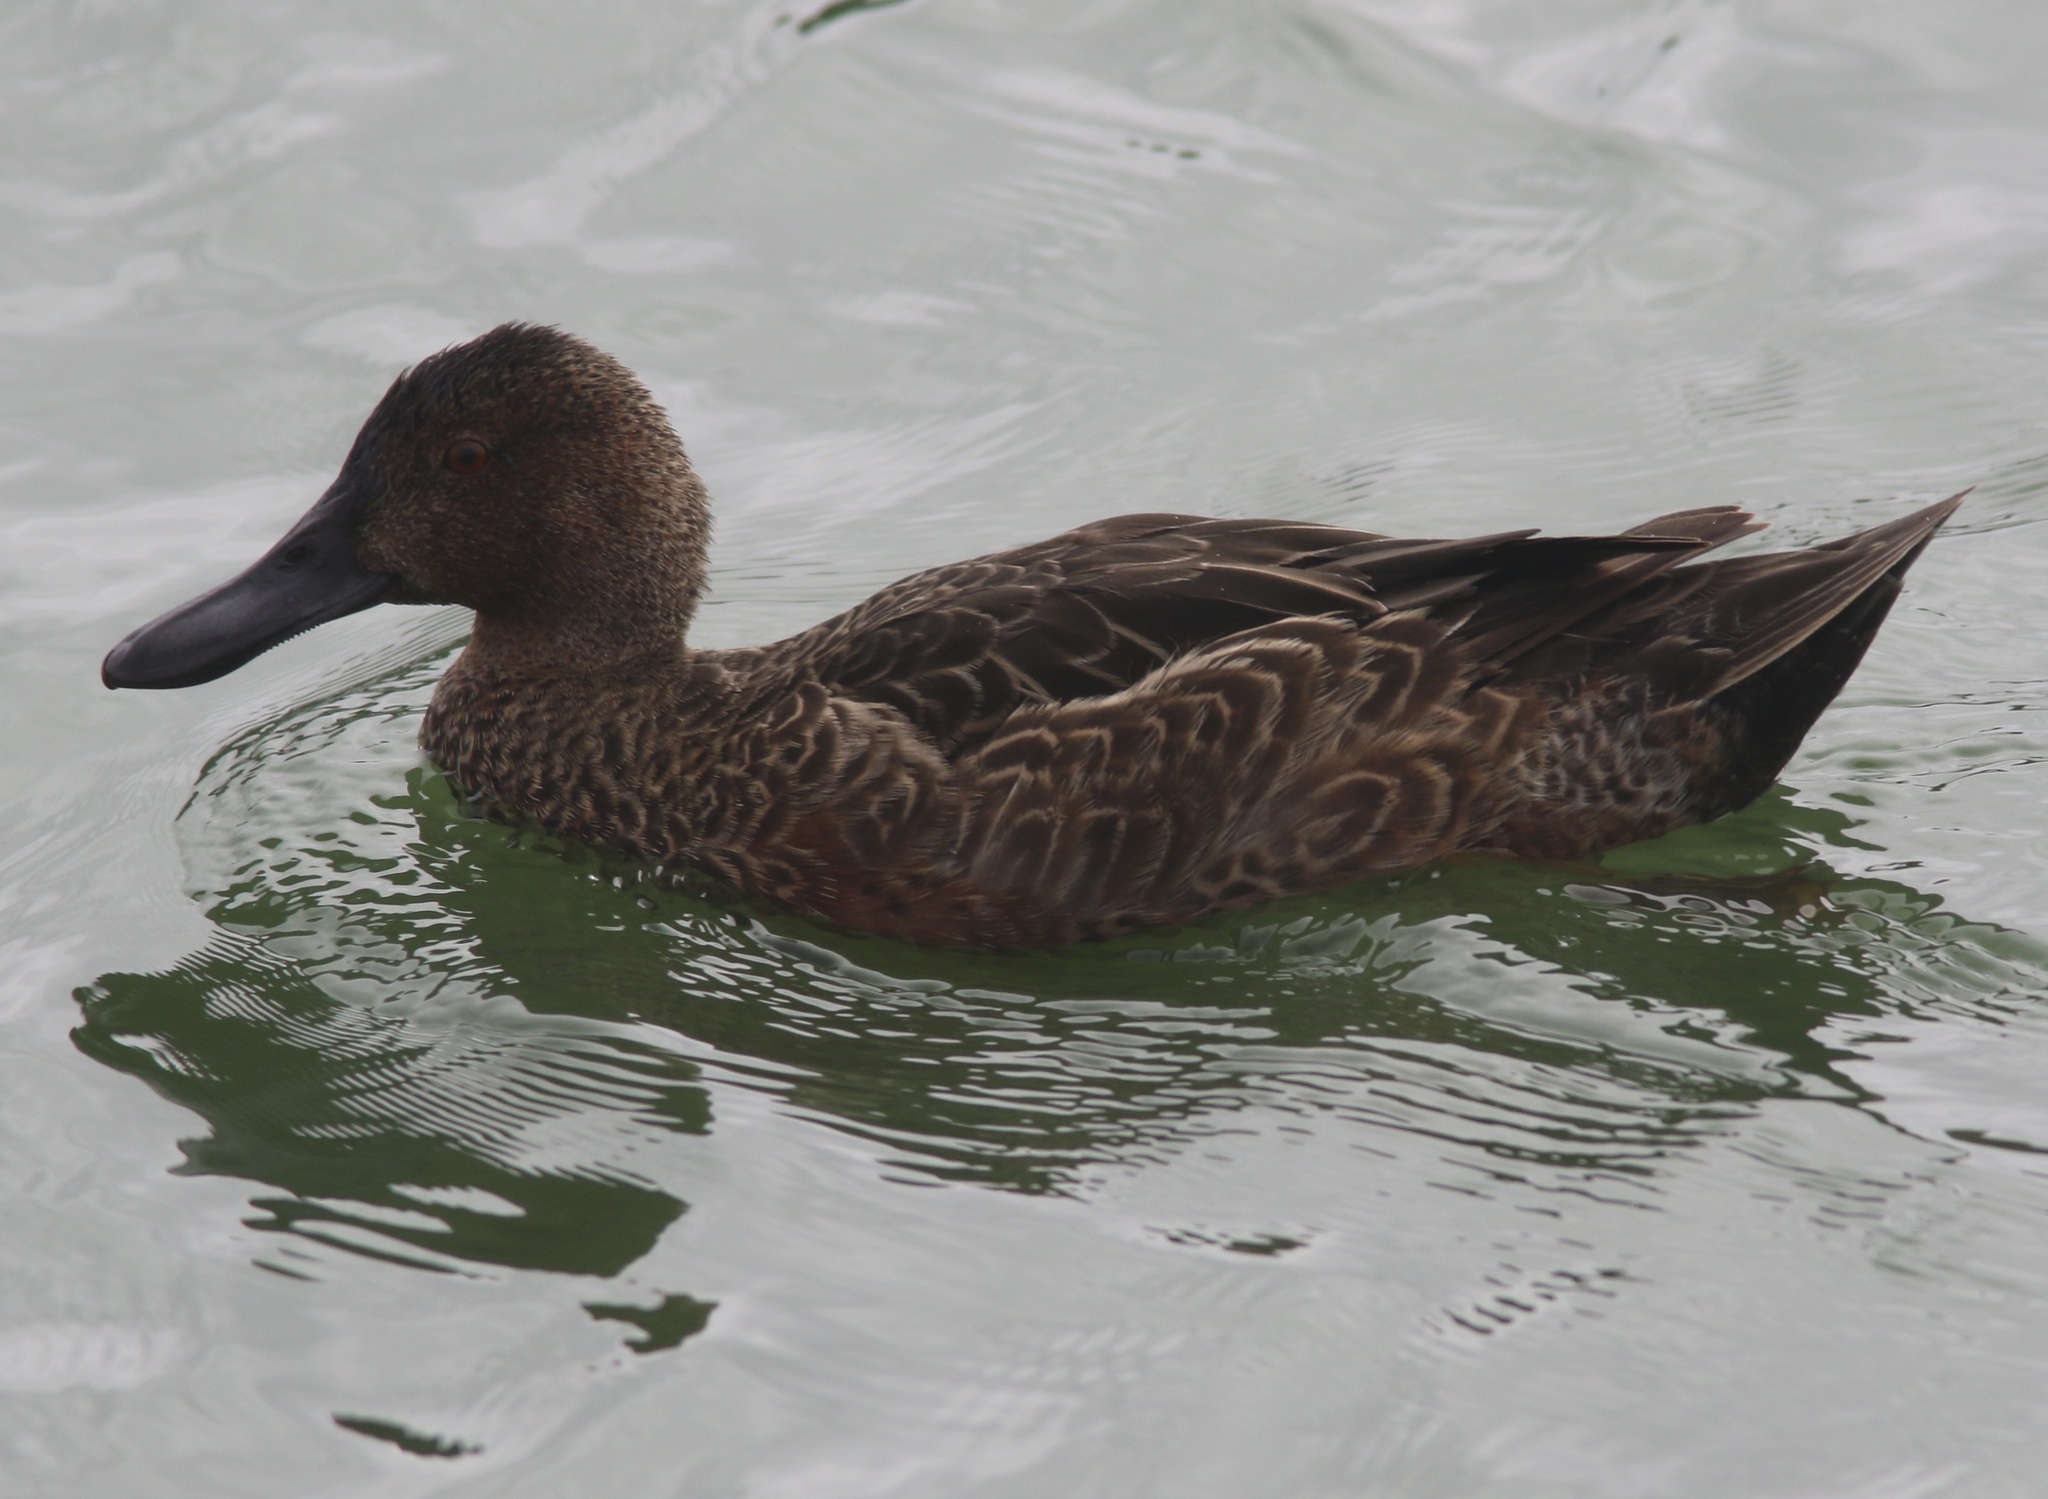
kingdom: Animalia
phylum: Chordata
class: Aves
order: Anseriformes
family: Anatidae
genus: Spatula
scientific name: Spatula cyanoptera
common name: Cinnamon teal
